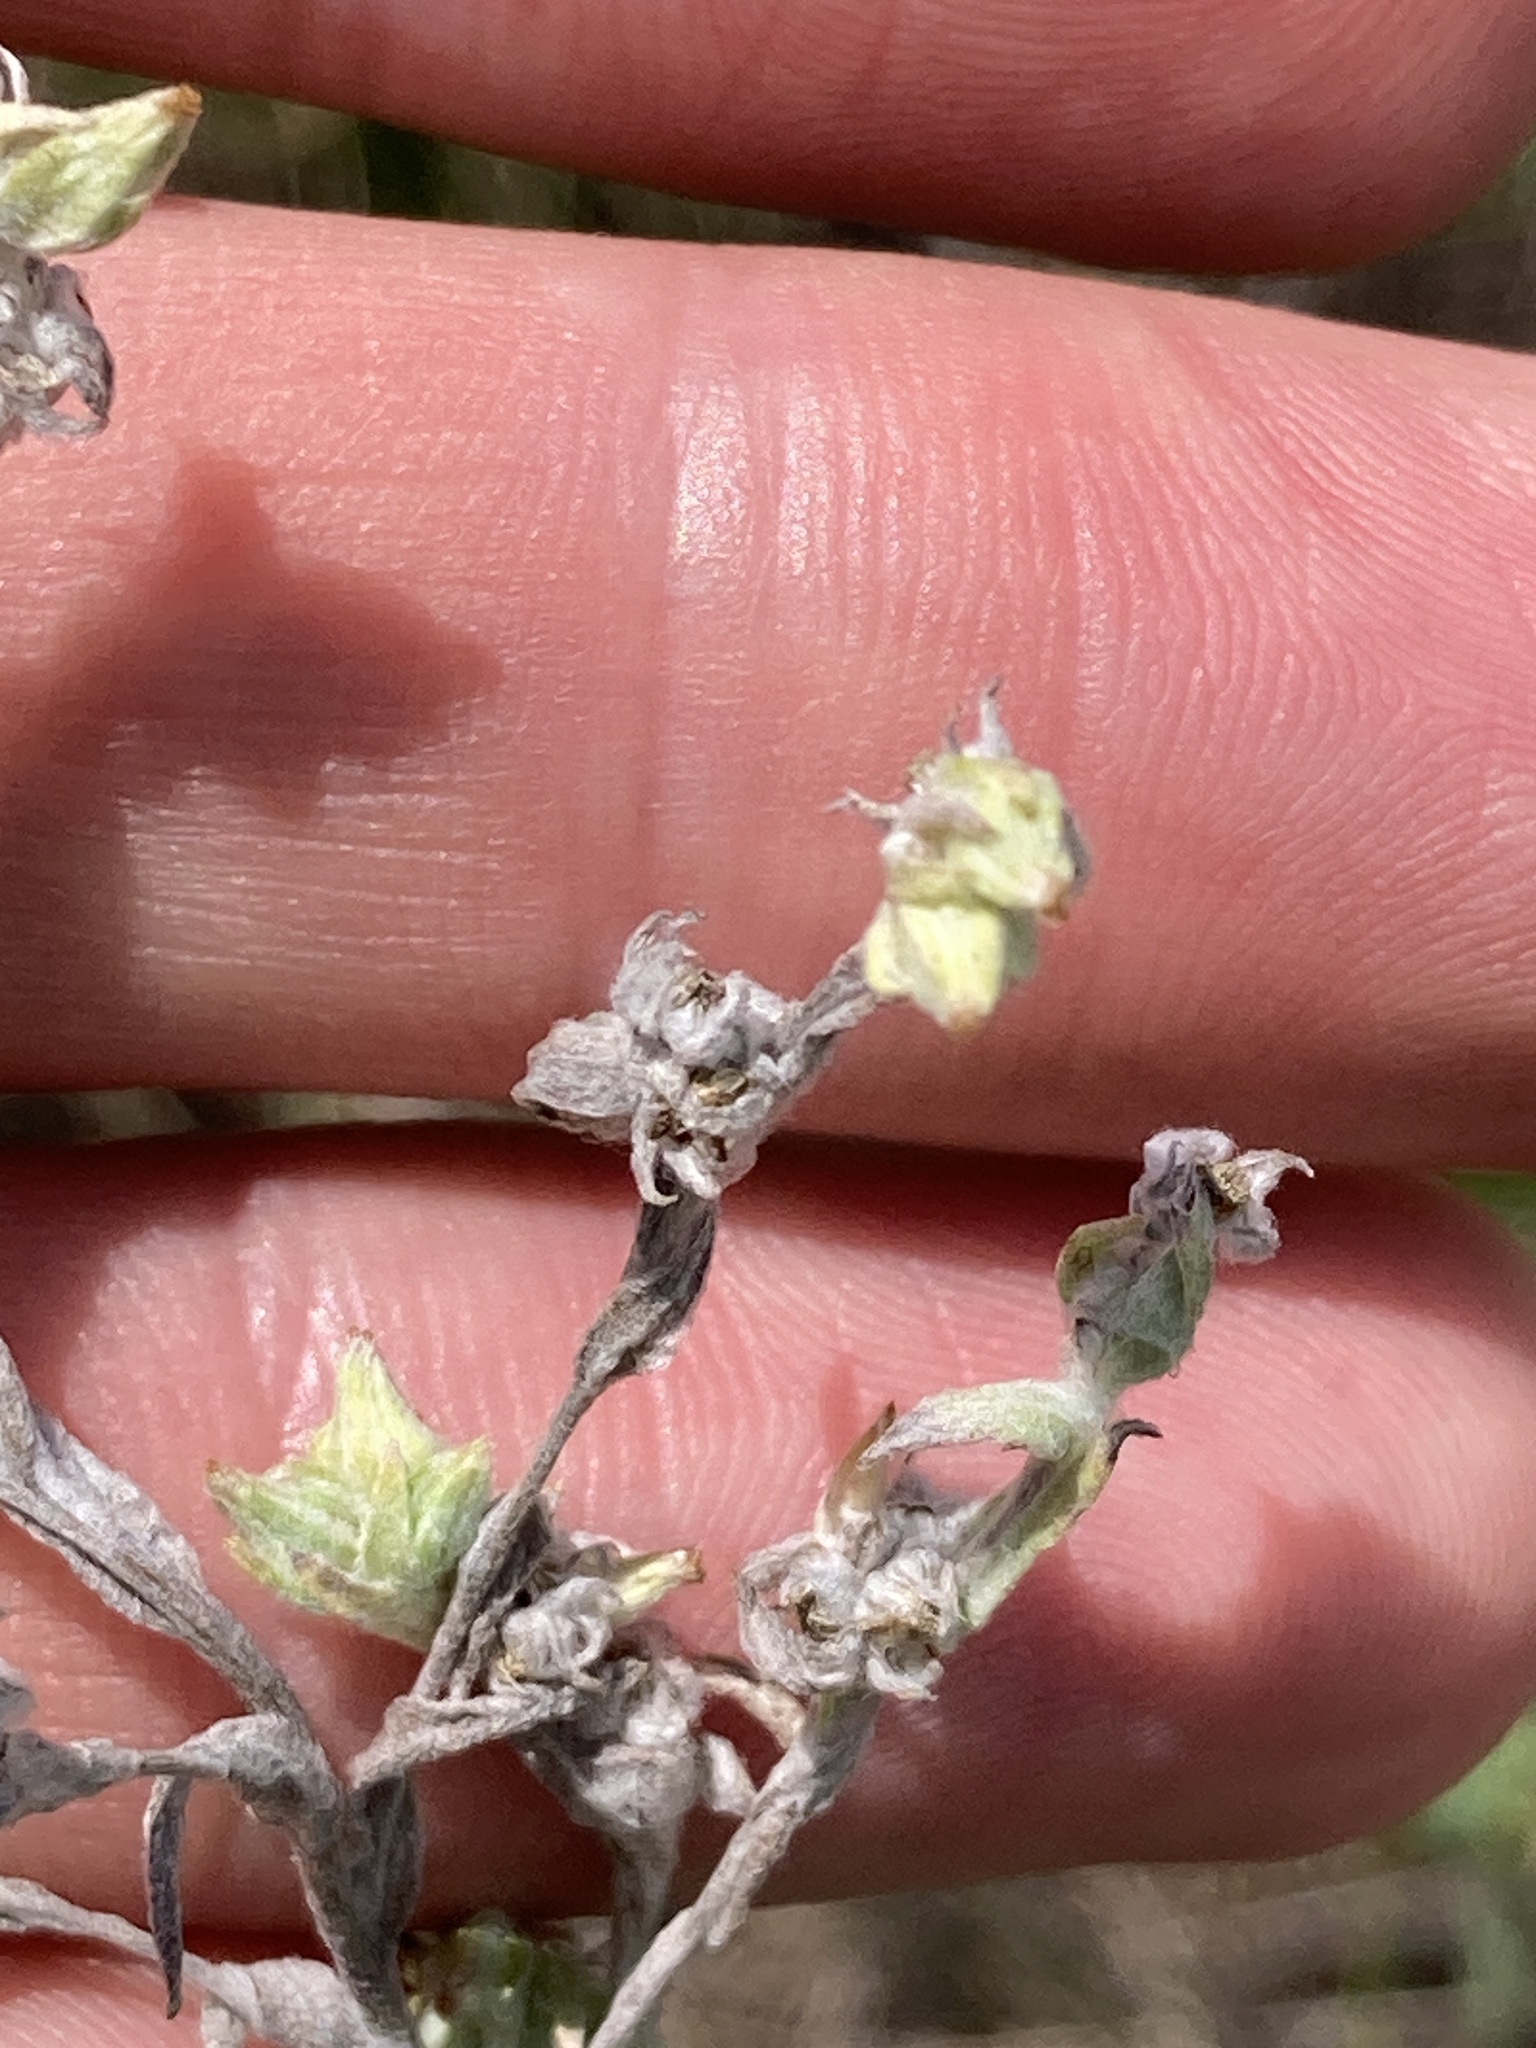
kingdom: Plantae
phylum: Tracheophyta
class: Magnoliopsida
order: Asterales
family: Asteraceae
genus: Filago
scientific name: Filago arvensis
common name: Field cudweed
